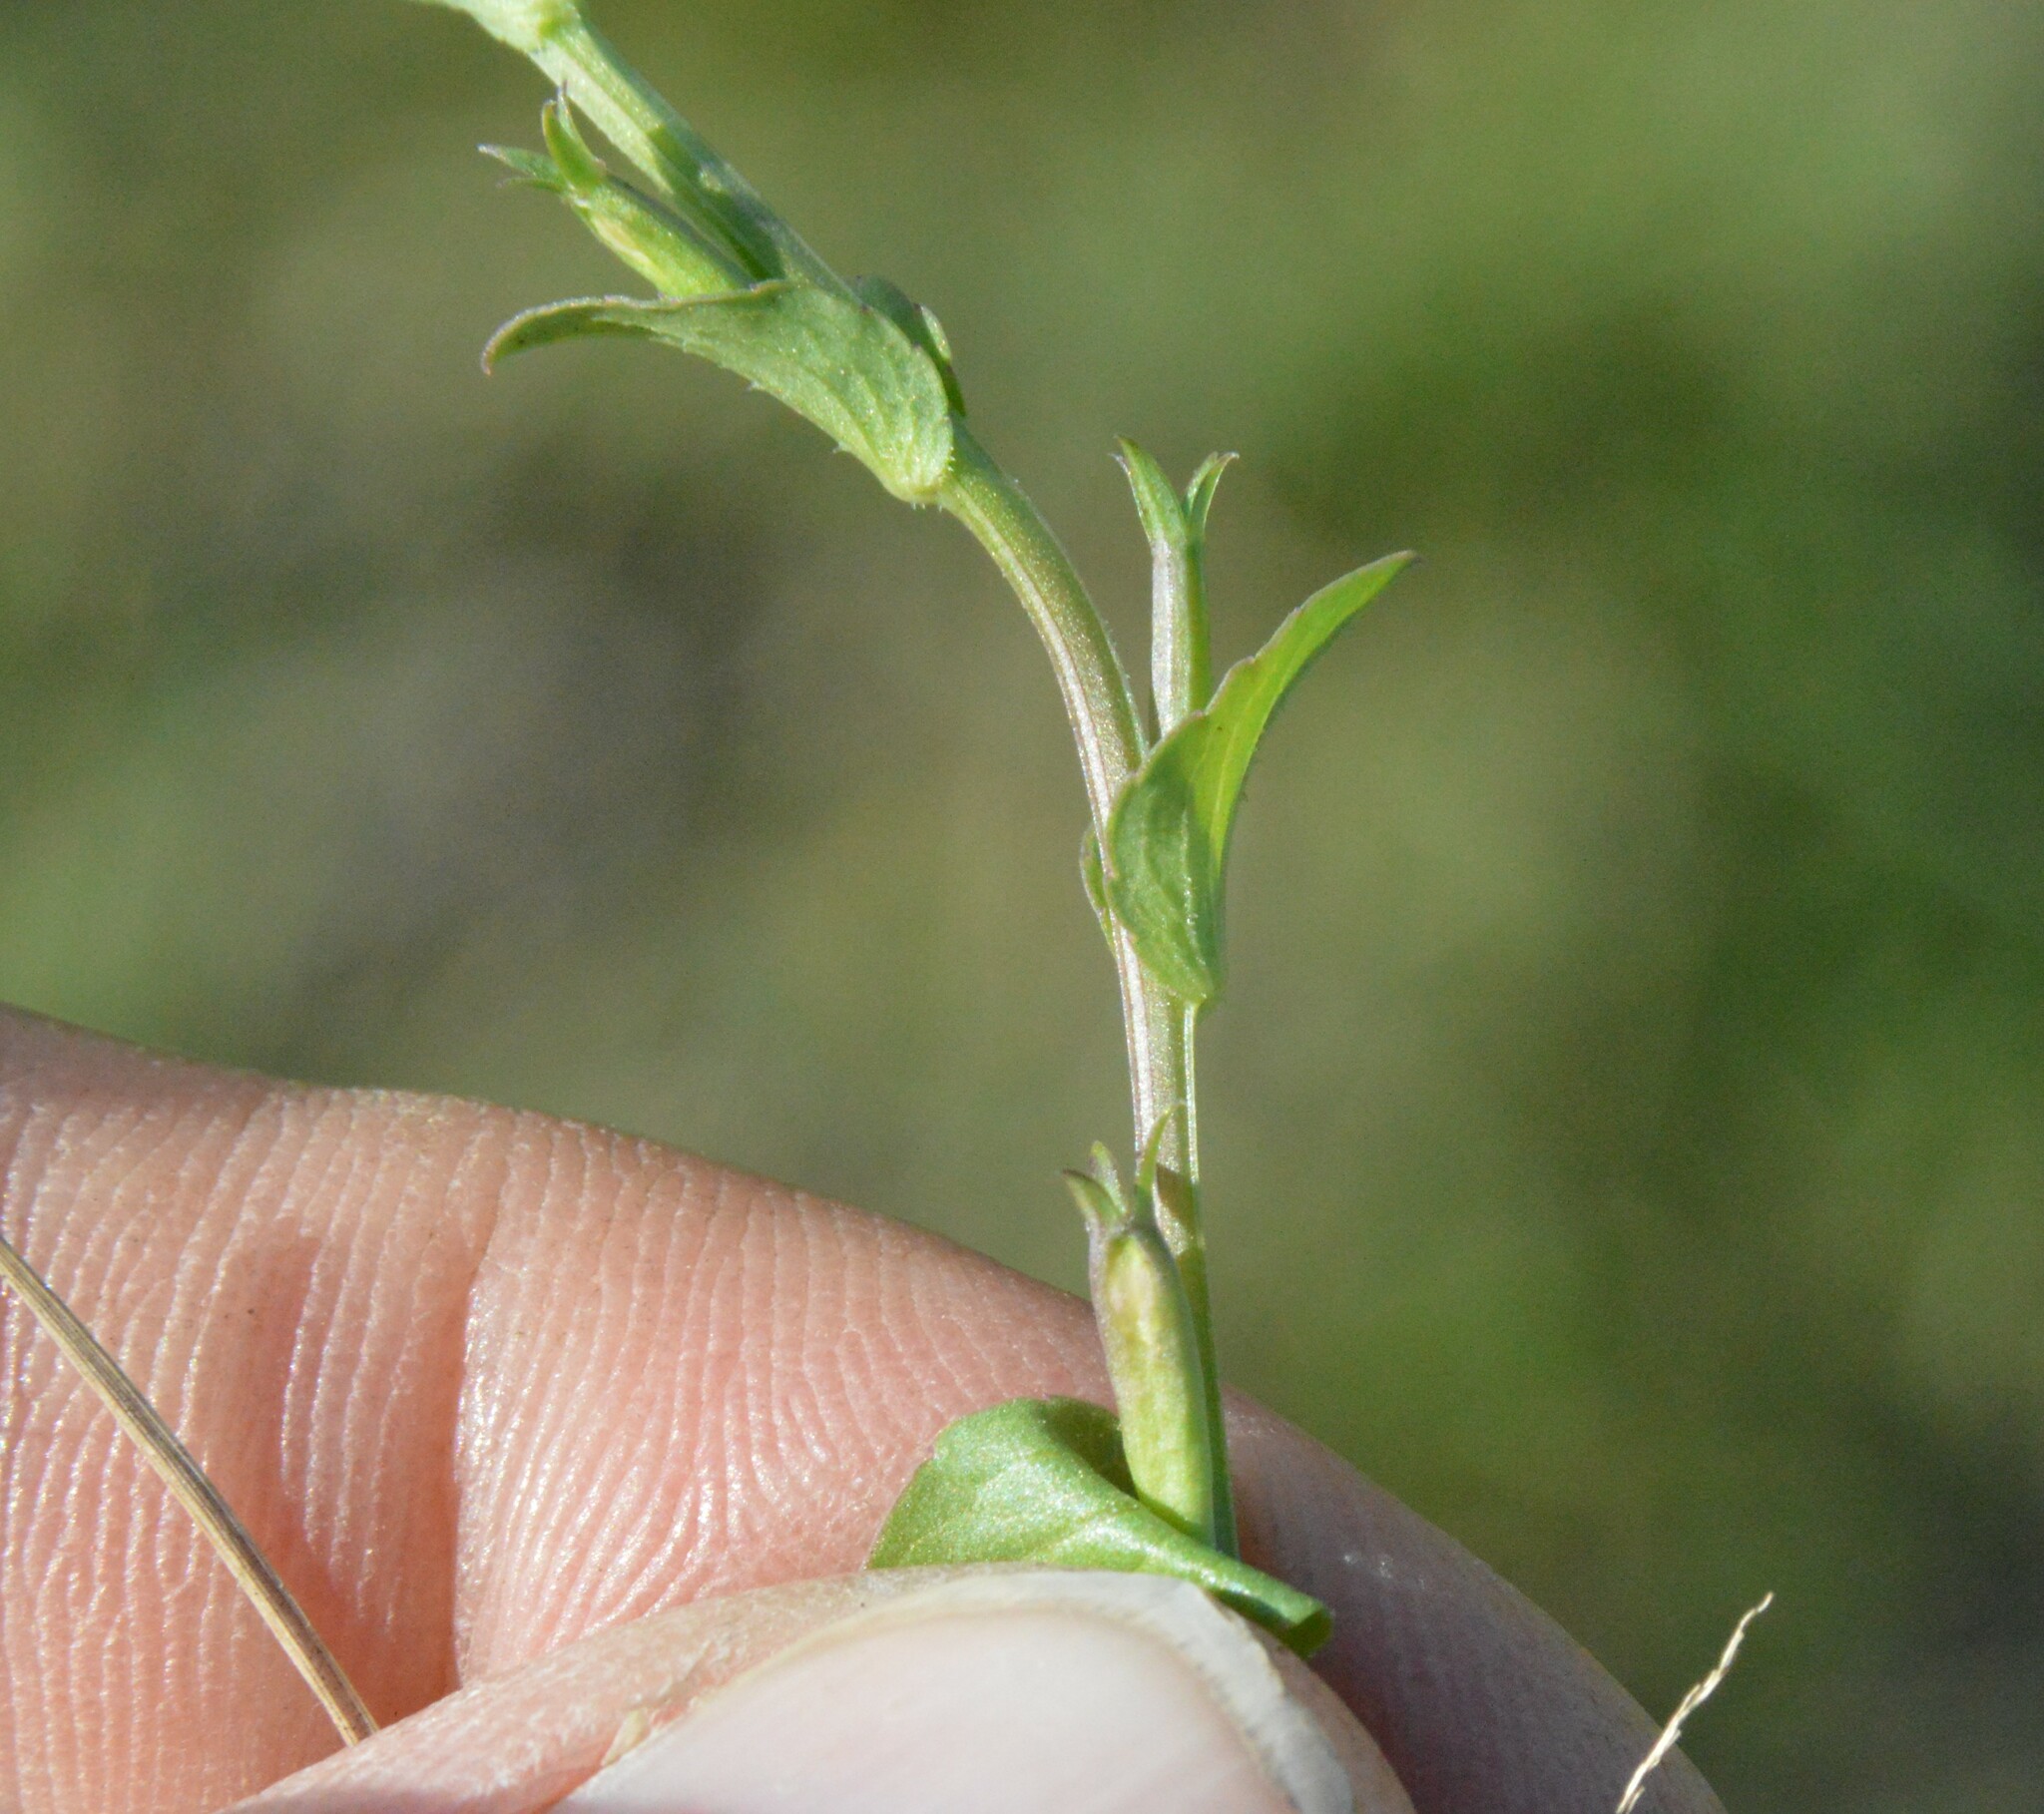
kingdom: Plantae
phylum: Tracheophyta
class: Magnoliopsida
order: Asterales
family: Campanulaceae
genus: Triodanis
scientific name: Triodanis biflora
